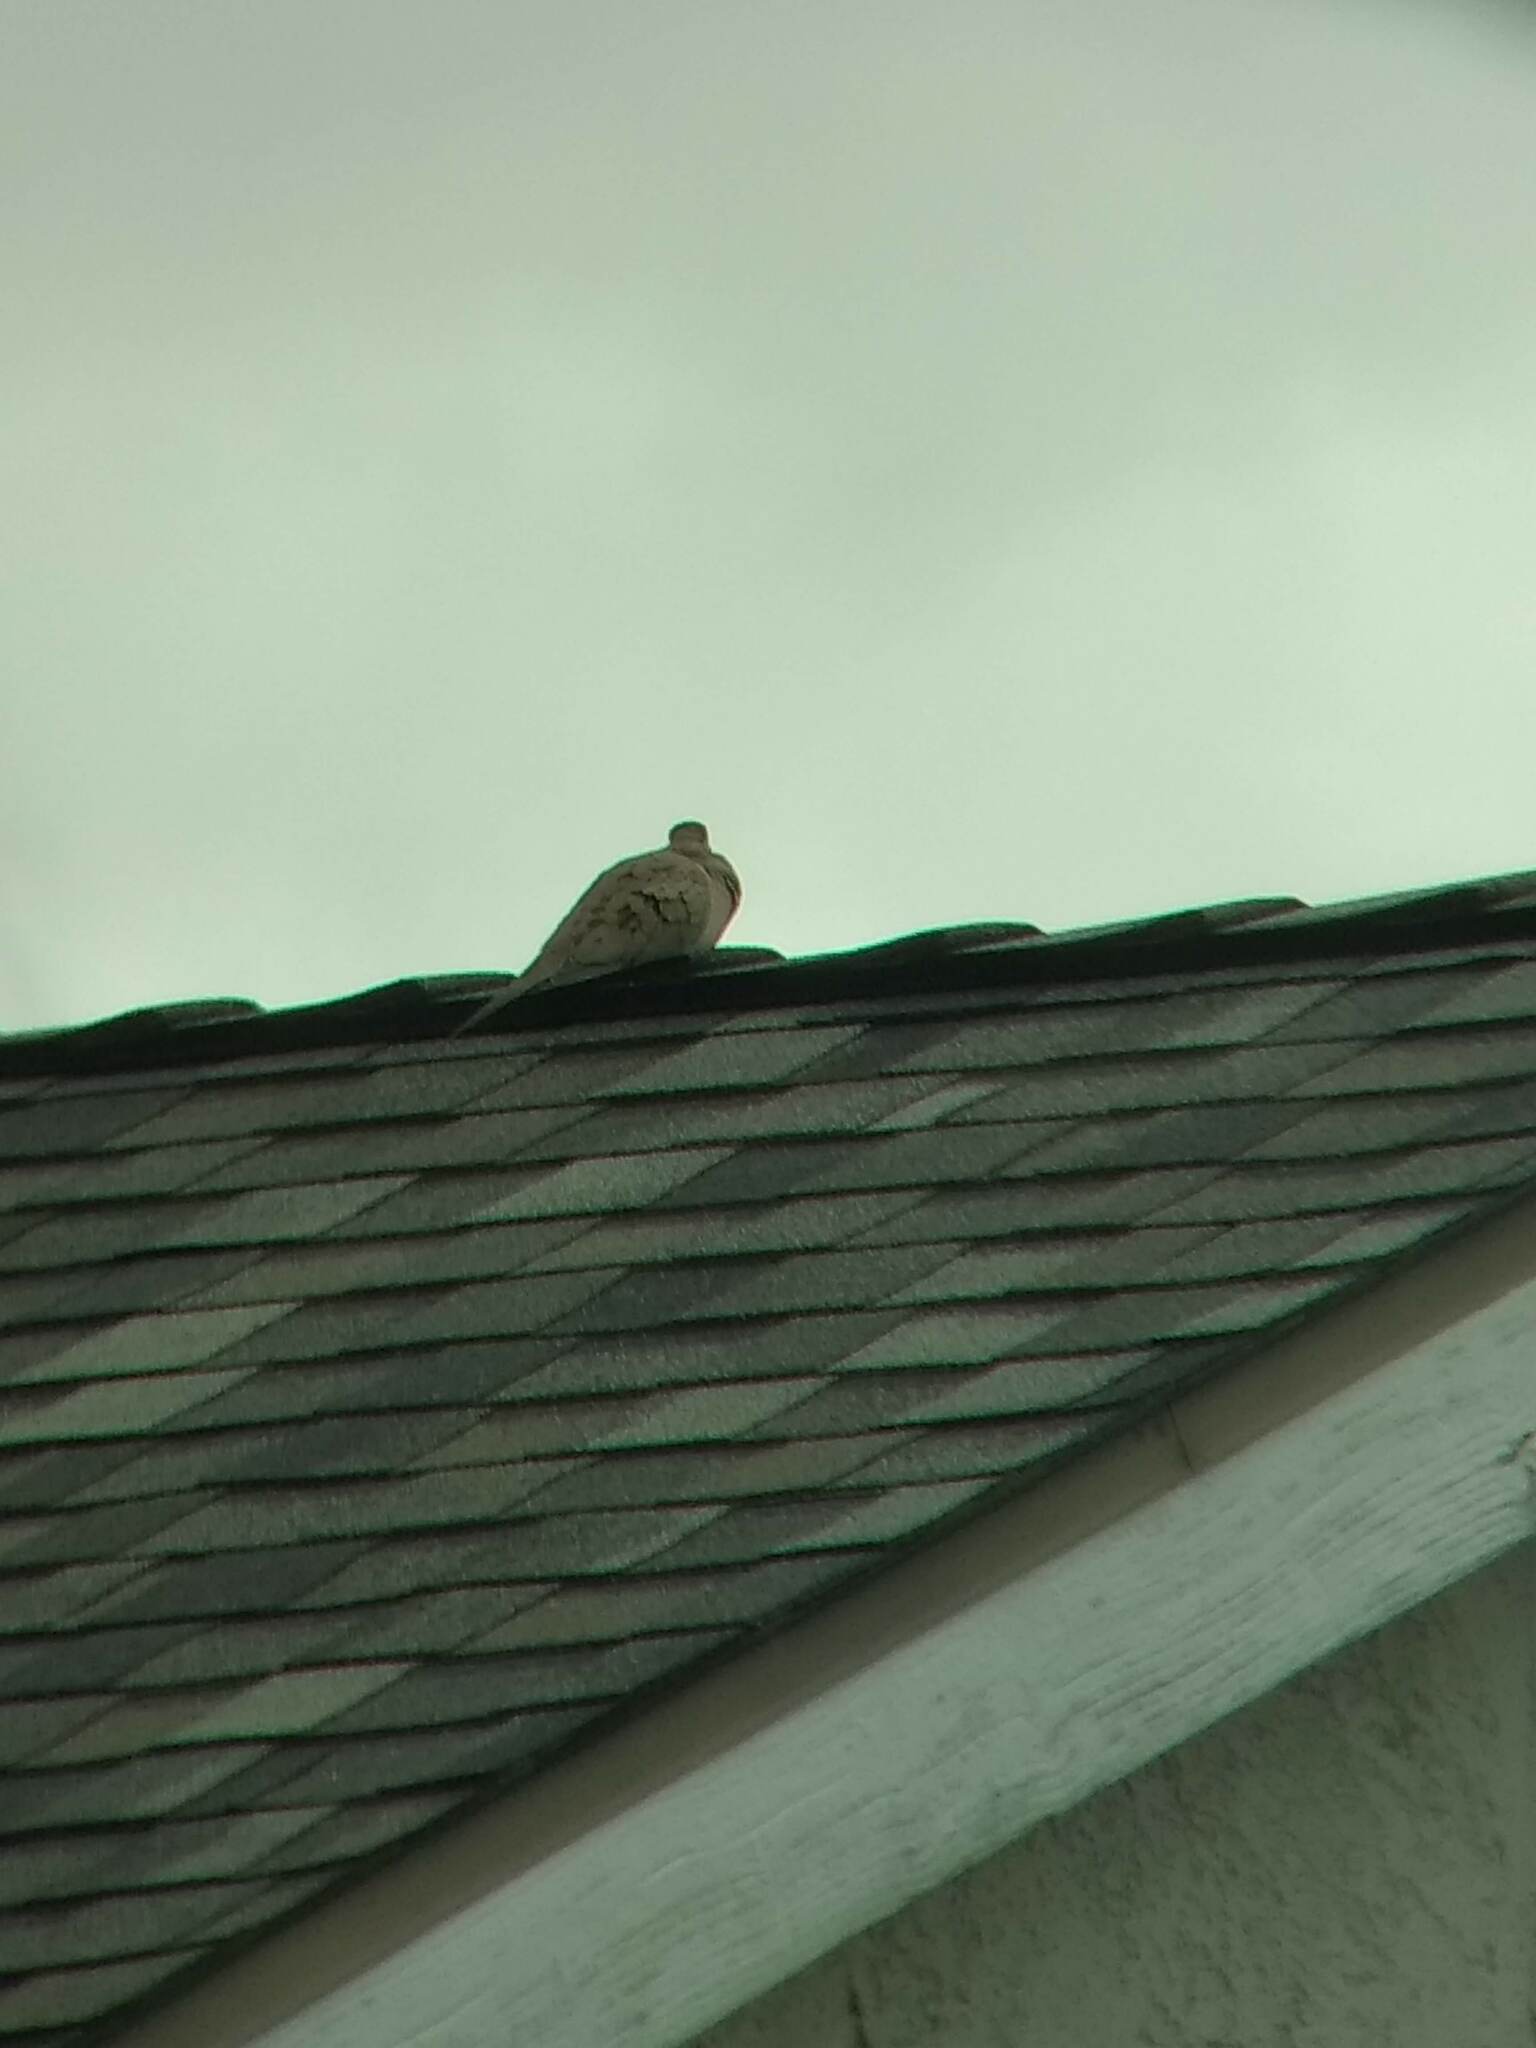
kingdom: Animalia
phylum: Chordata
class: Aves
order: Columbiformes
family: Columbidae
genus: Zenaida
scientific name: Zenaida macroura
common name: Mourning dove
